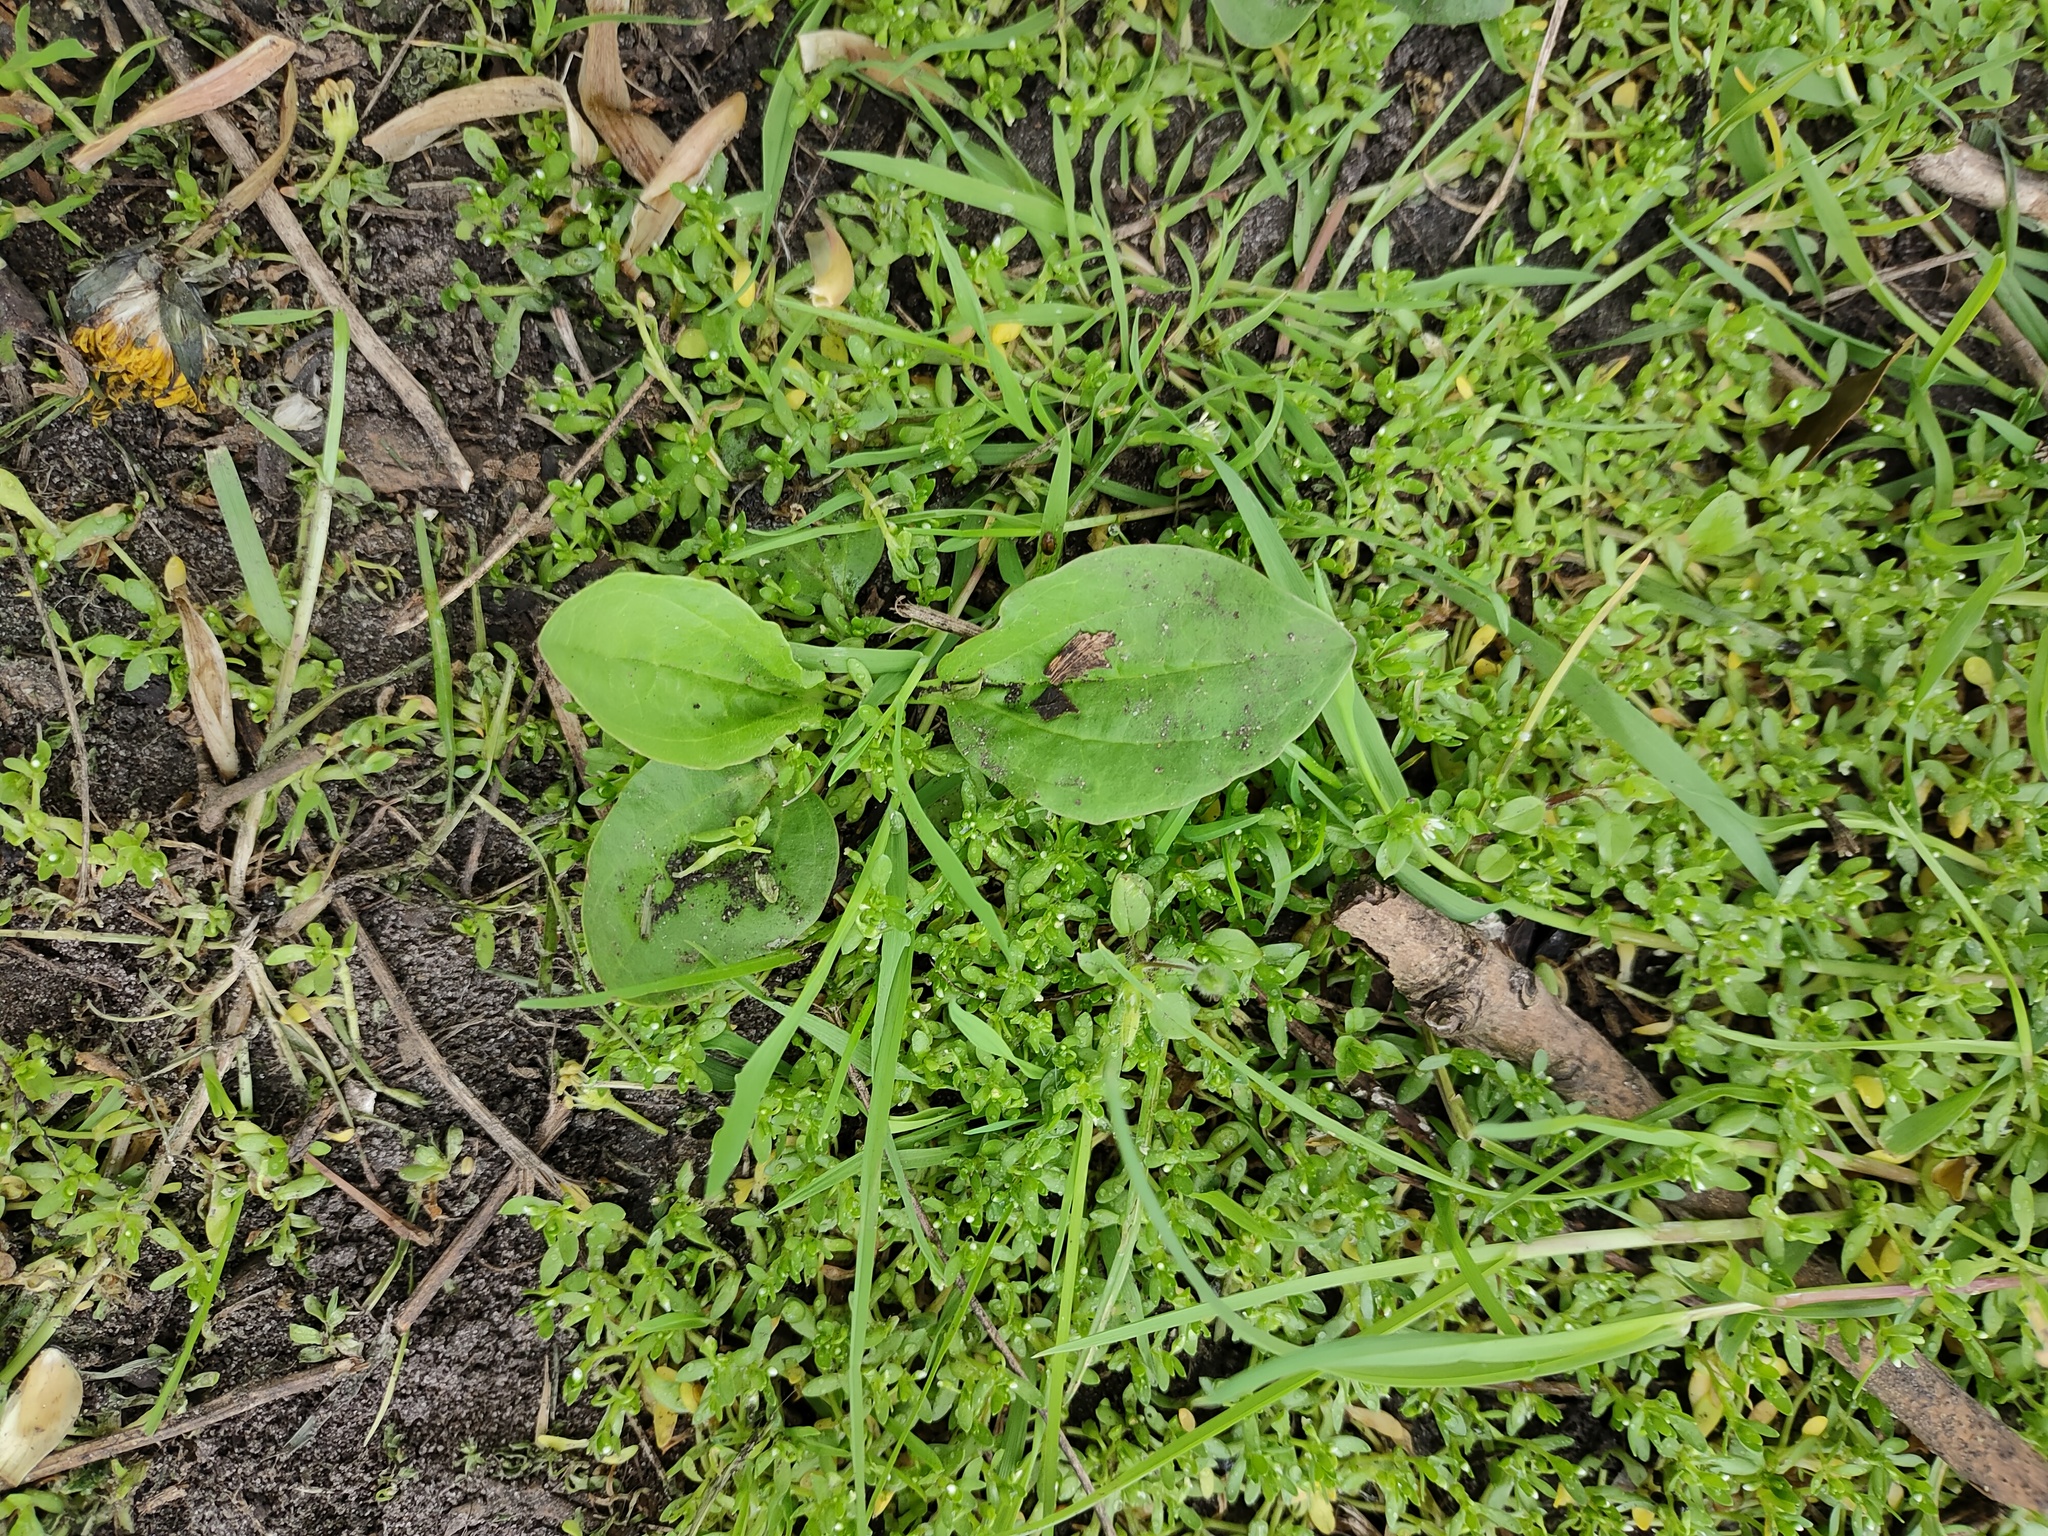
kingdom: Plantae
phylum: Tracheophyta
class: Magnoliopsida
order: Lamiales
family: Plantaginaceae
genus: Plantago
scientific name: Plantago major
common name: Common plantain
